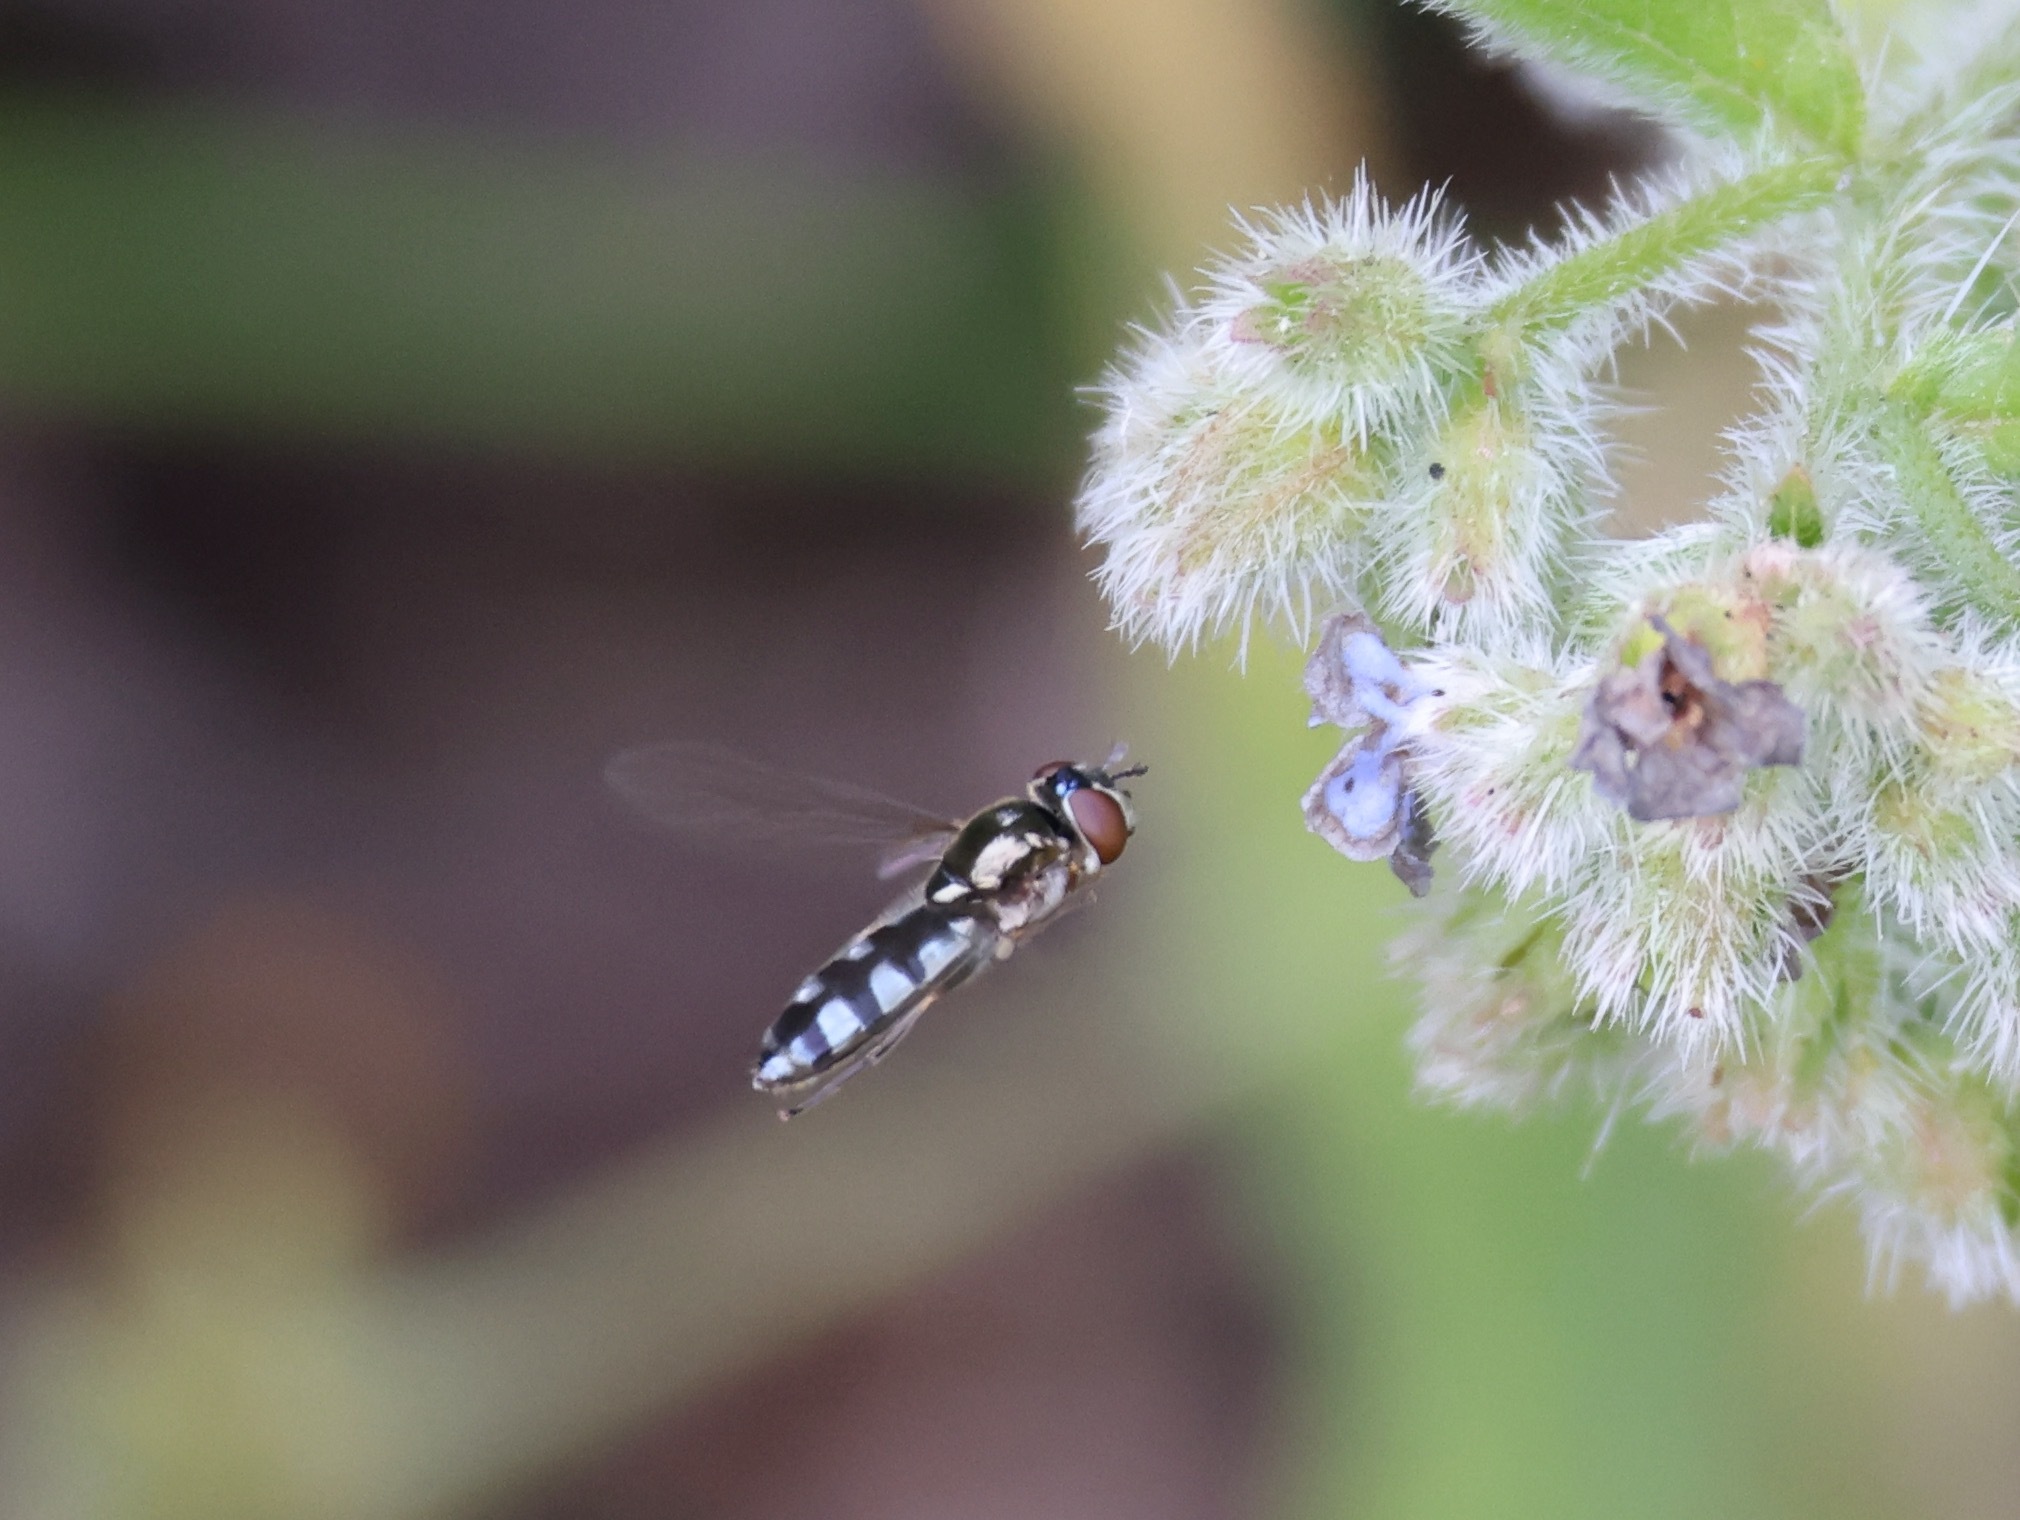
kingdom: Animalia
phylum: Arthropoda
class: Insecta
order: Diptera
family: Syrphidae
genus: Platycheirus
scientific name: Platycheirus albimanus
